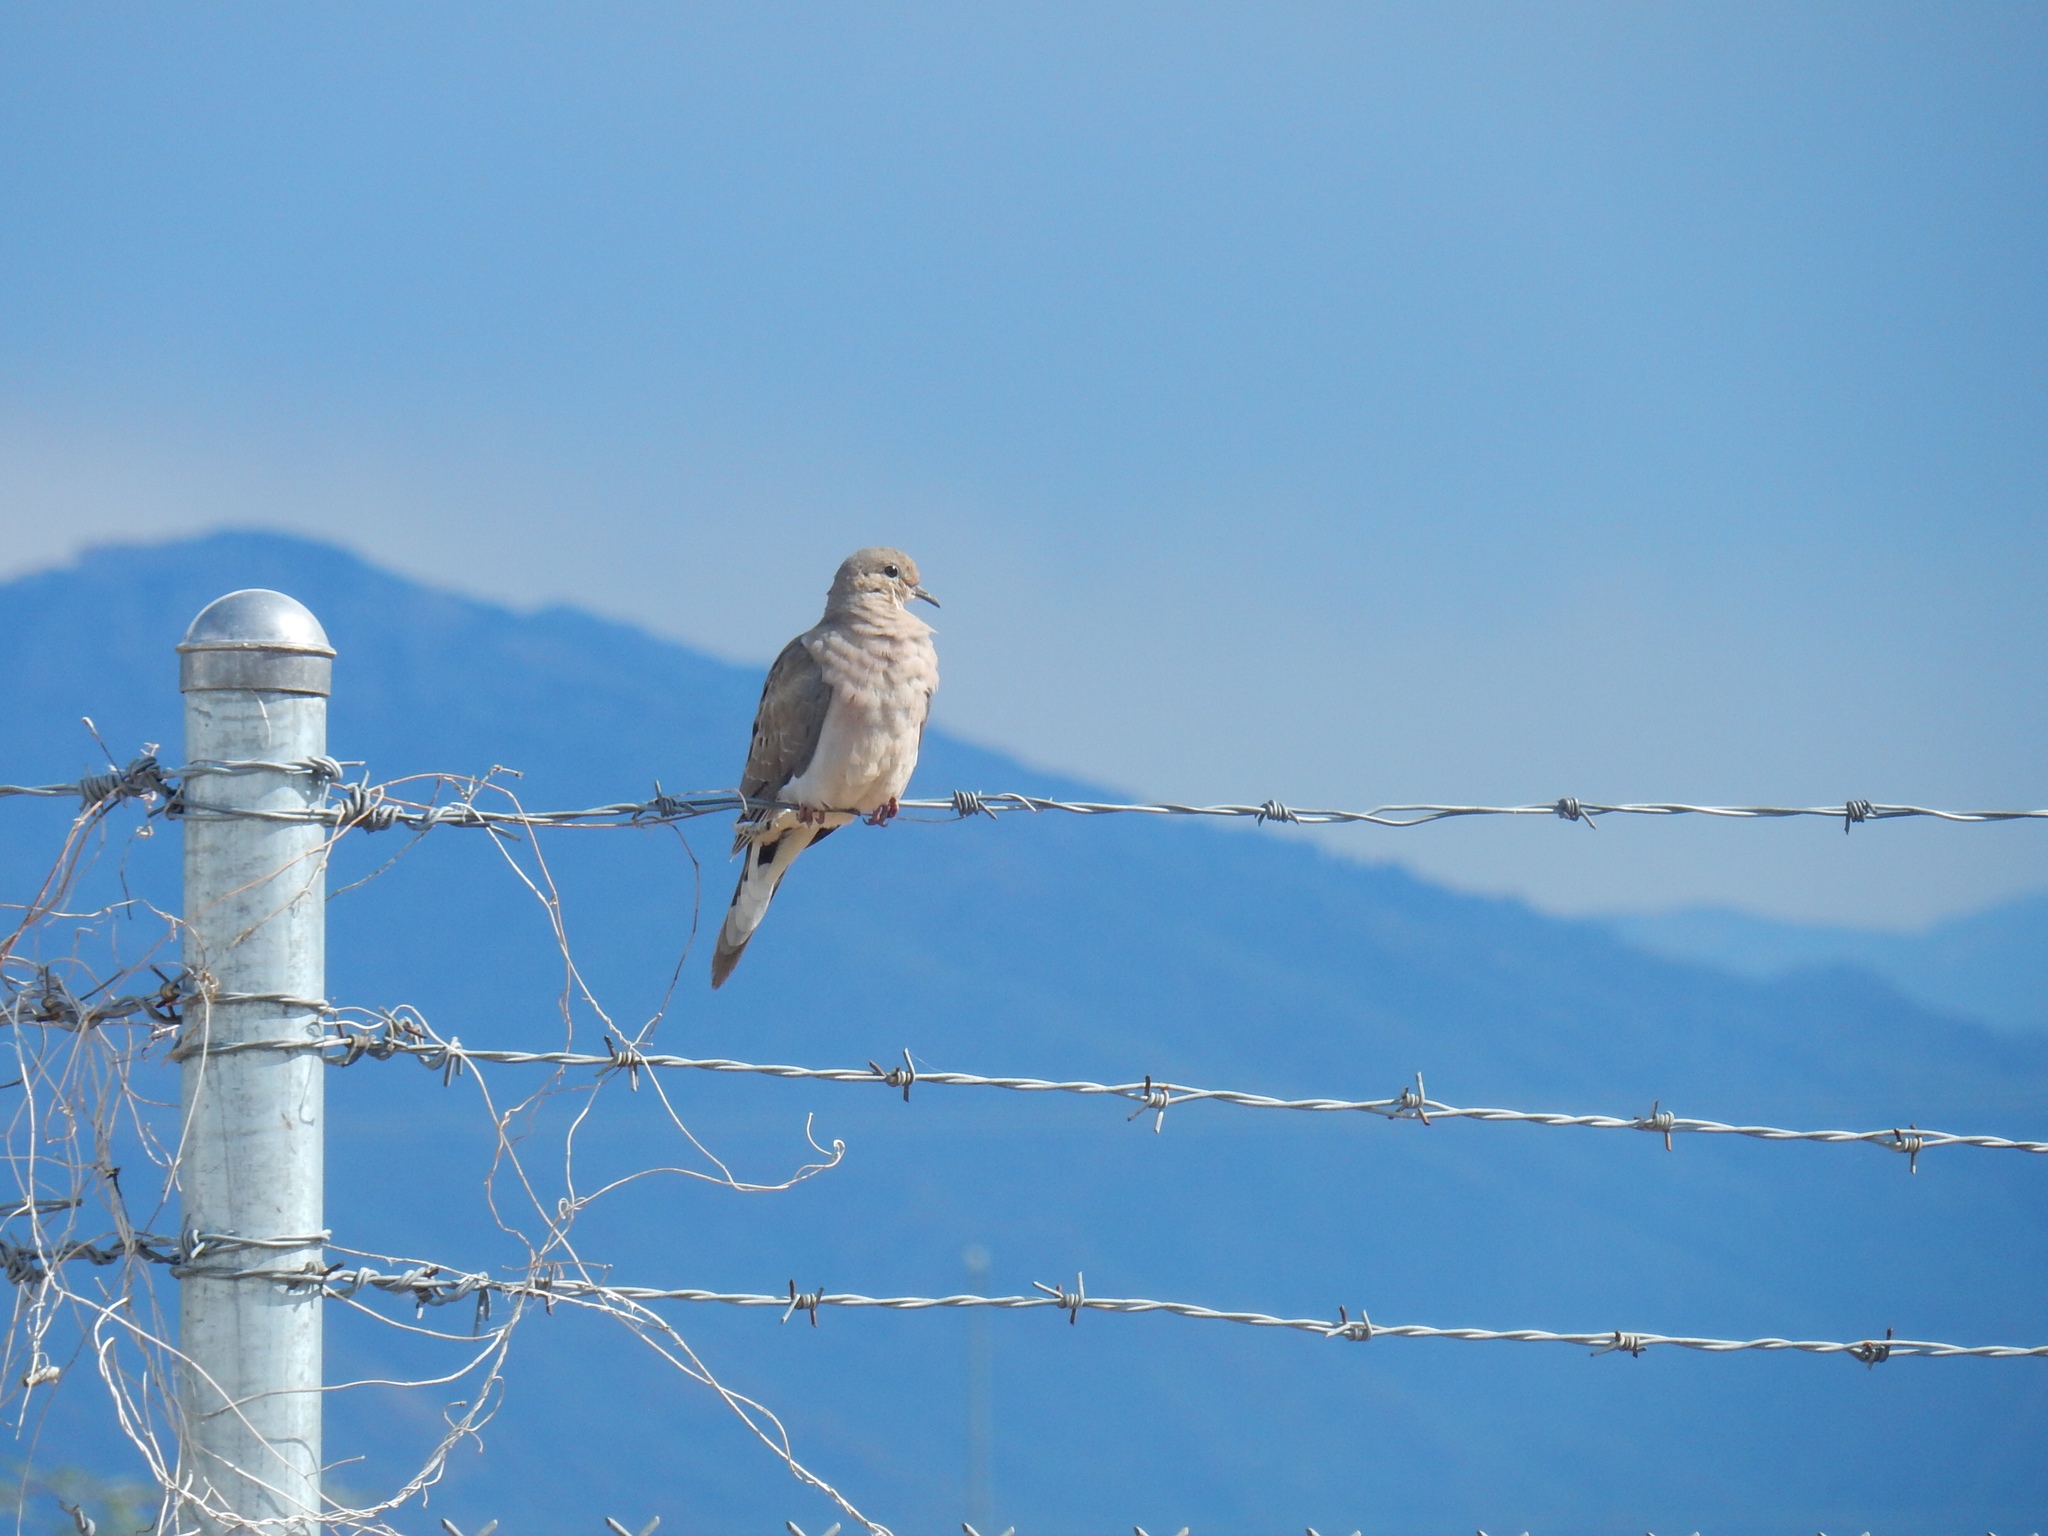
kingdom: Animalia
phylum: Chordata
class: Aves
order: Columbiformes
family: Columbidae
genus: Zenaida
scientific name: Zenaida macroura
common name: Mourning dove
